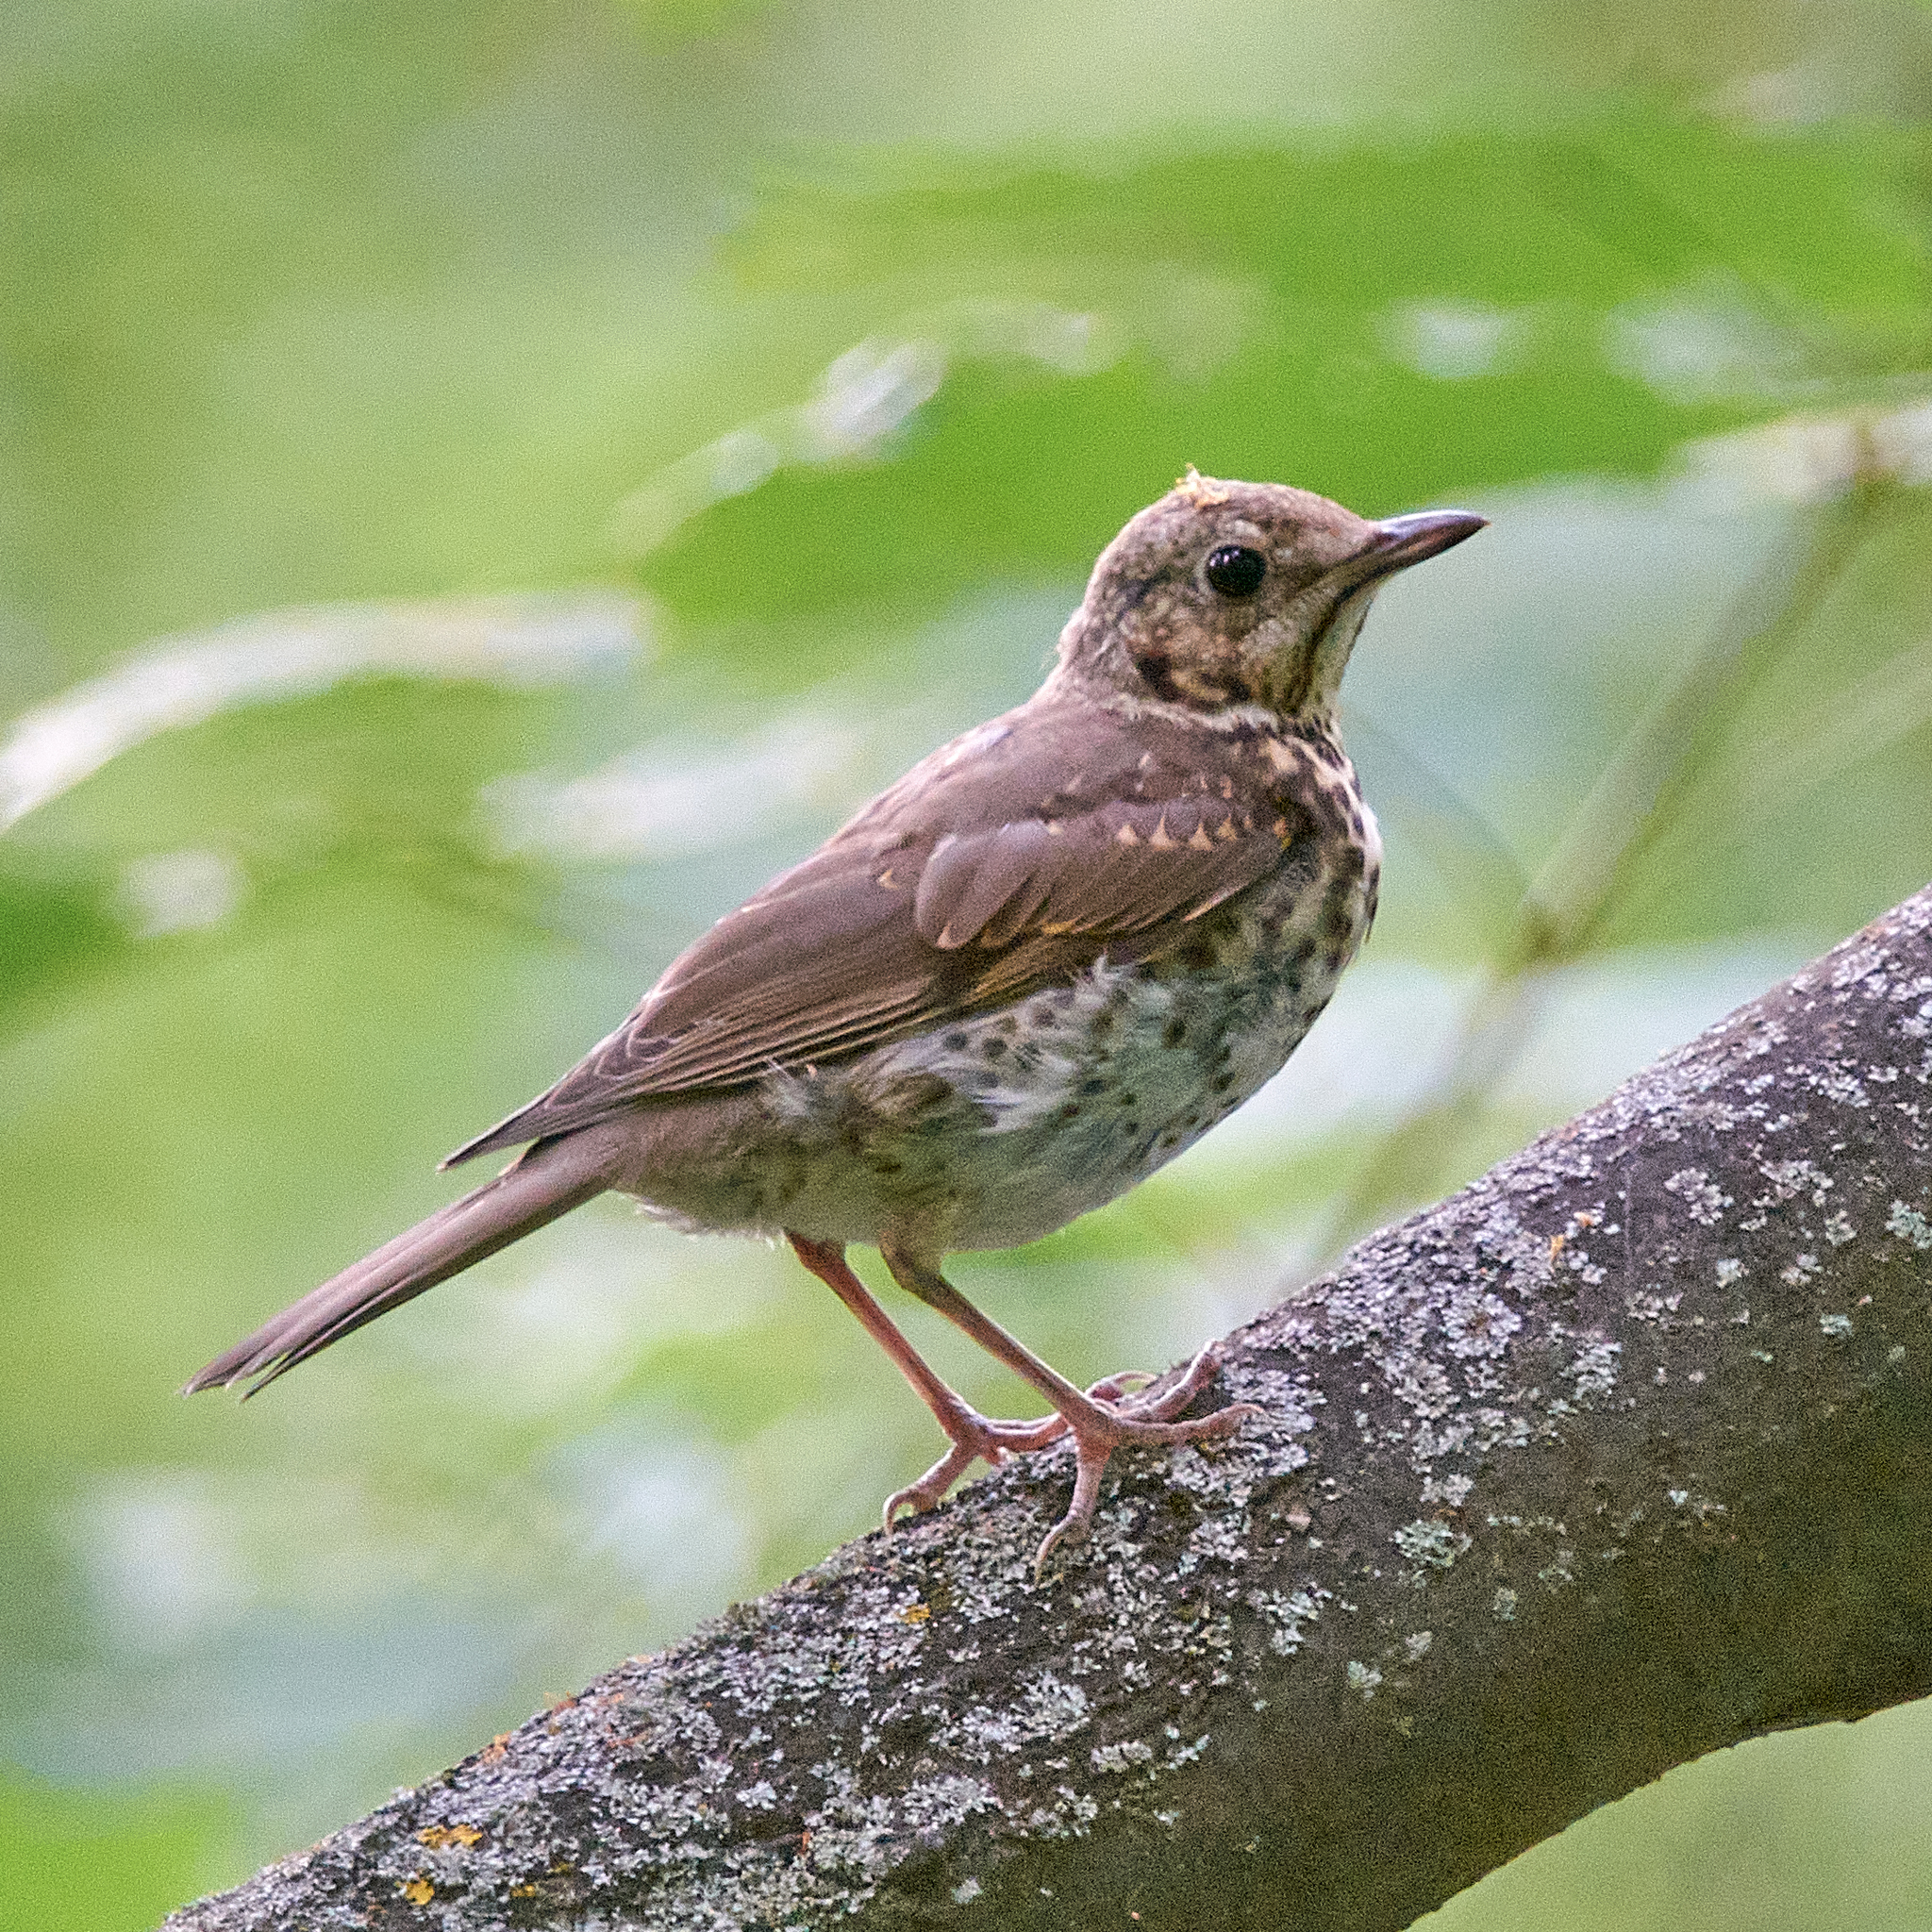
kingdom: Animalia
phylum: Chordata
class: Aves
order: Passeriformes
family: Turdidae
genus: Turdus
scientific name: Turdus philomelos
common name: Song thrush
